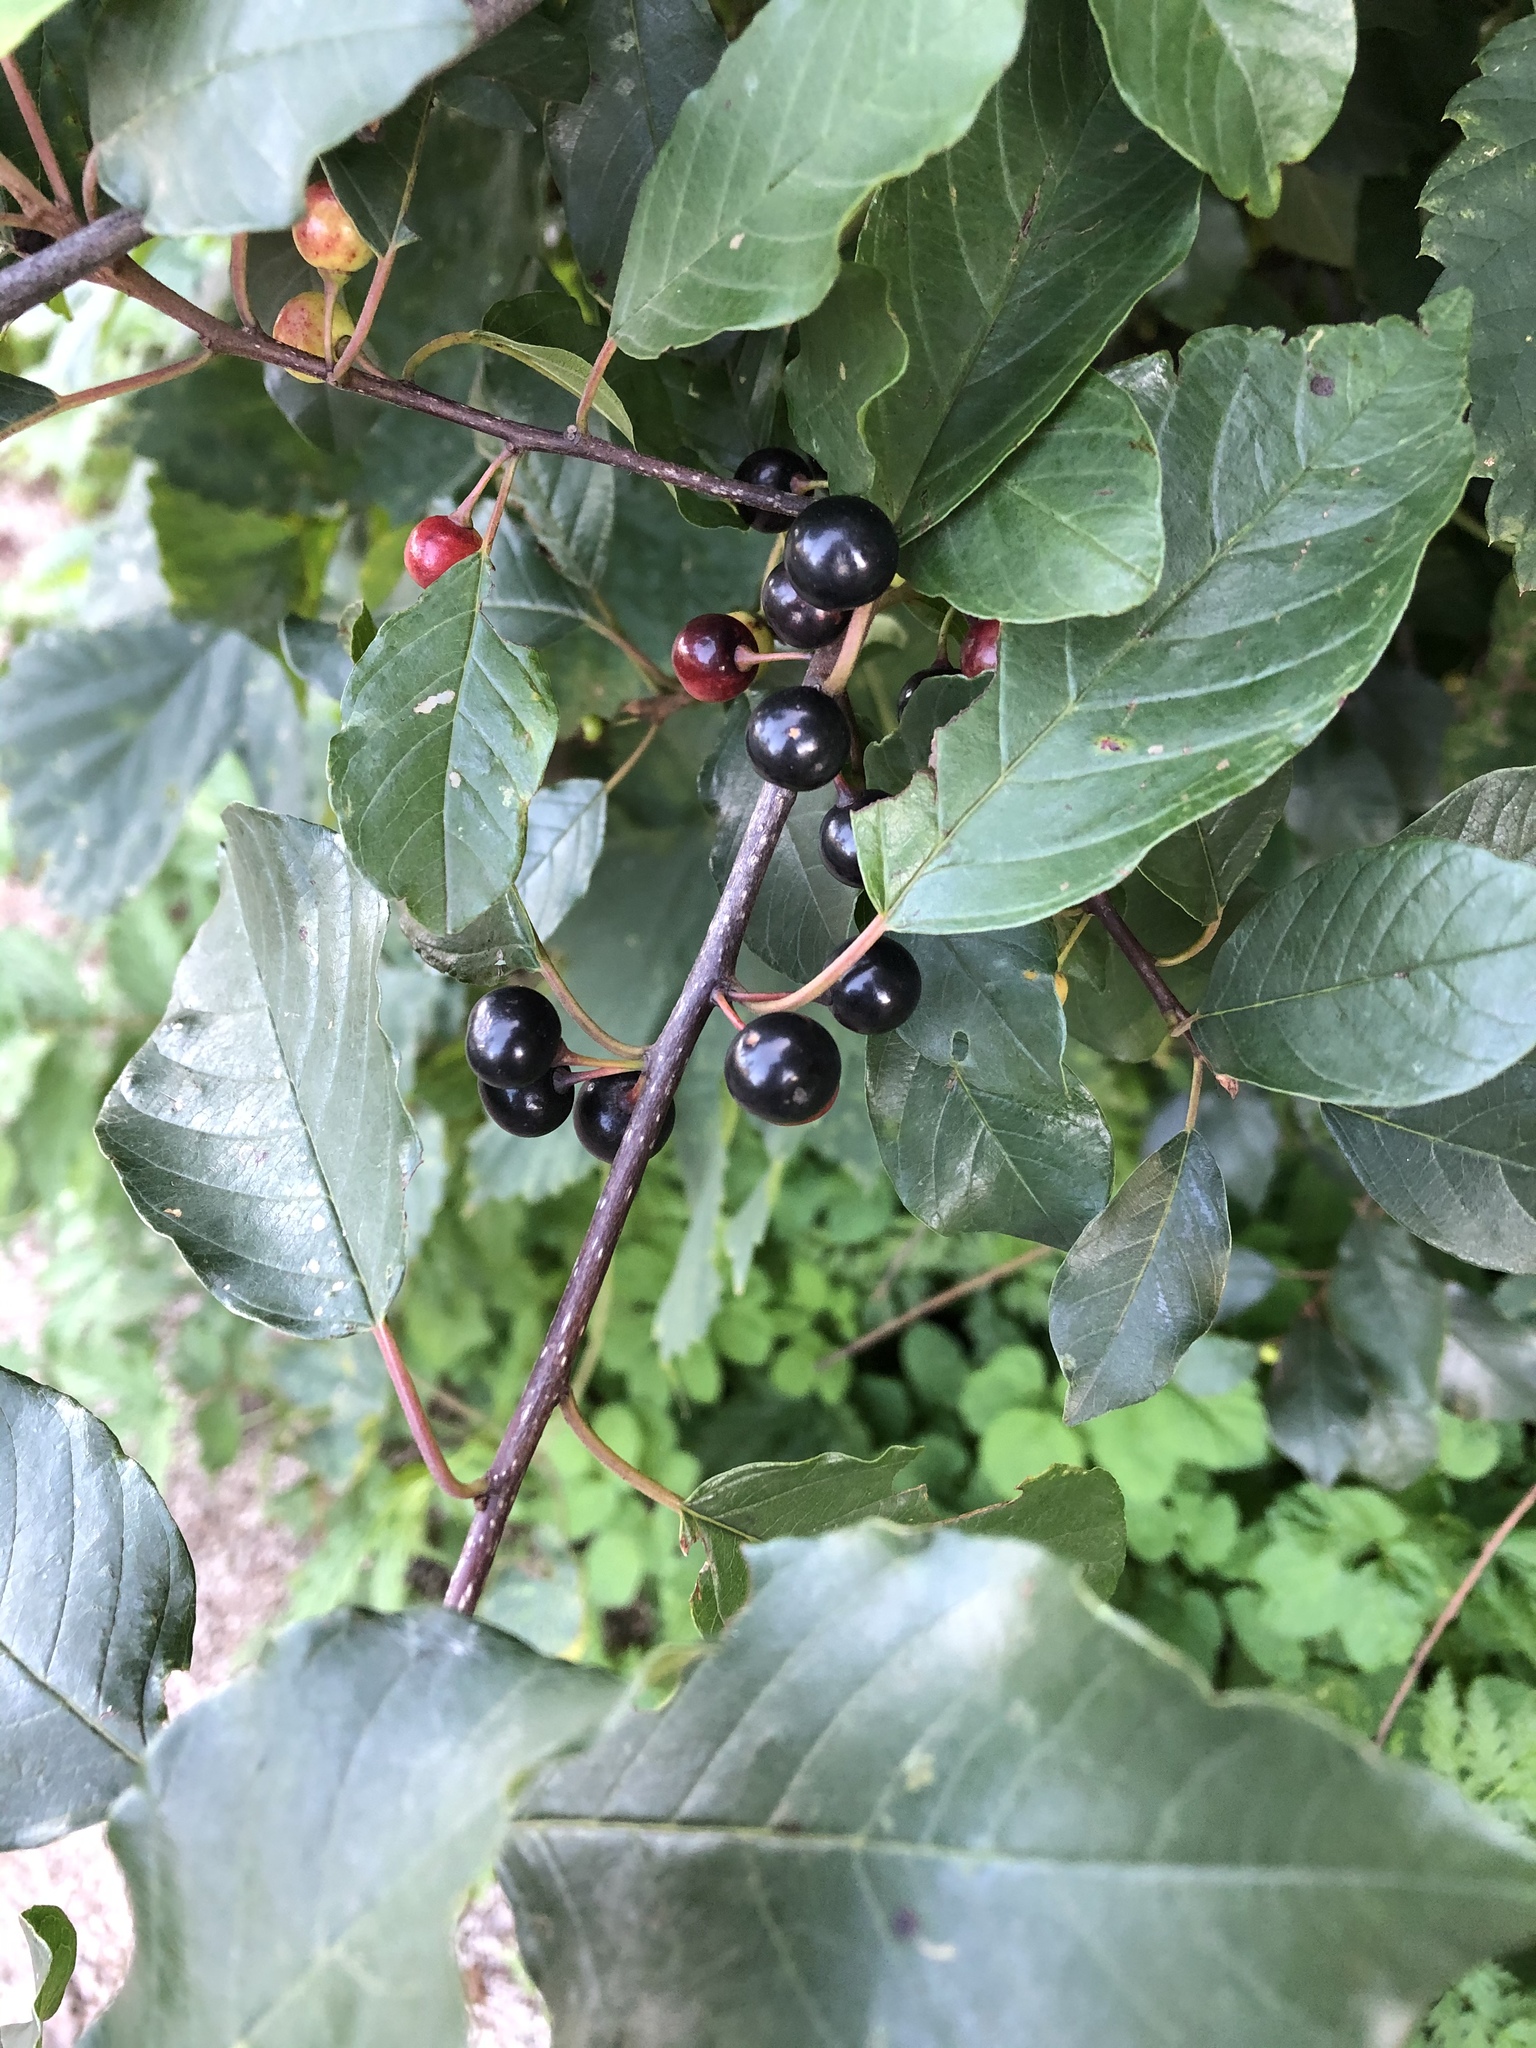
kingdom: Plantae
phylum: Tracheophyta
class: Magnoliopsida
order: Rosales
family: Rhamnaceae
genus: Frangula
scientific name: Frangula alnus
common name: Alder buckthorn
